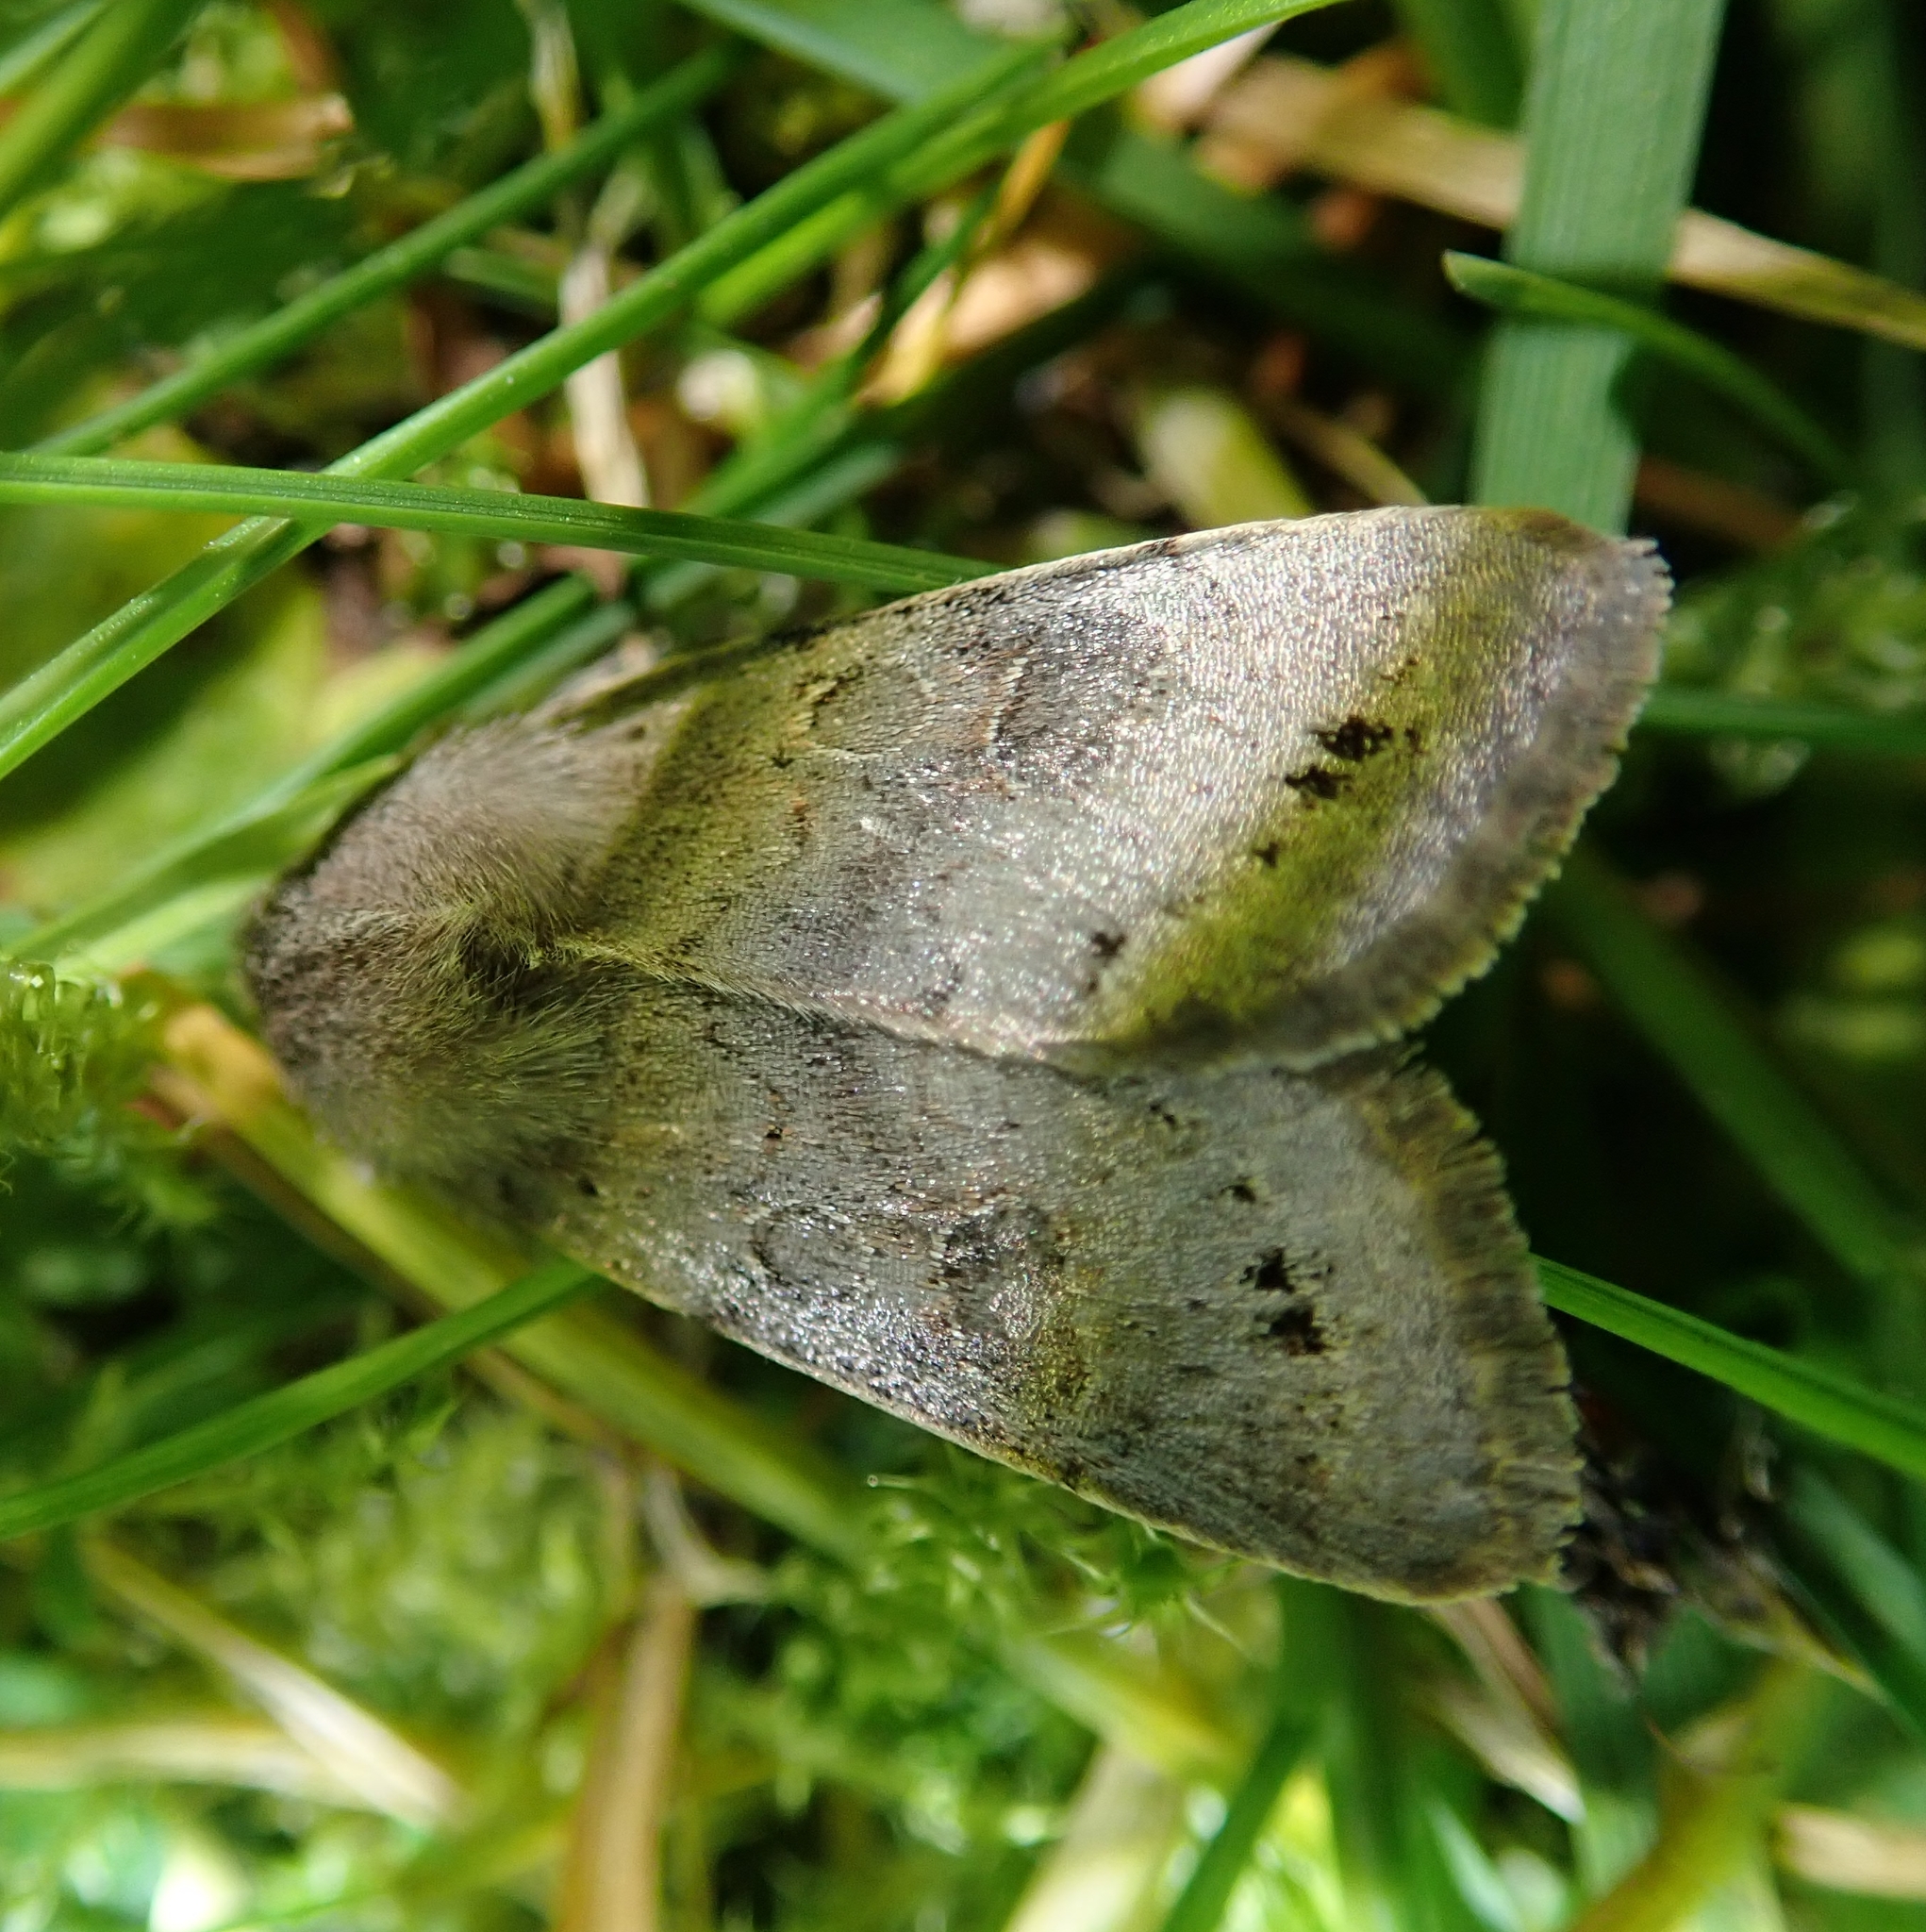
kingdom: Animalia
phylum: Arthropoda
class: Insecta
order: Lepidoptera
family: Noctuidae
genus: Orthosia
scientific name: Orthosia populeti
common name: Lead-coloured drab
